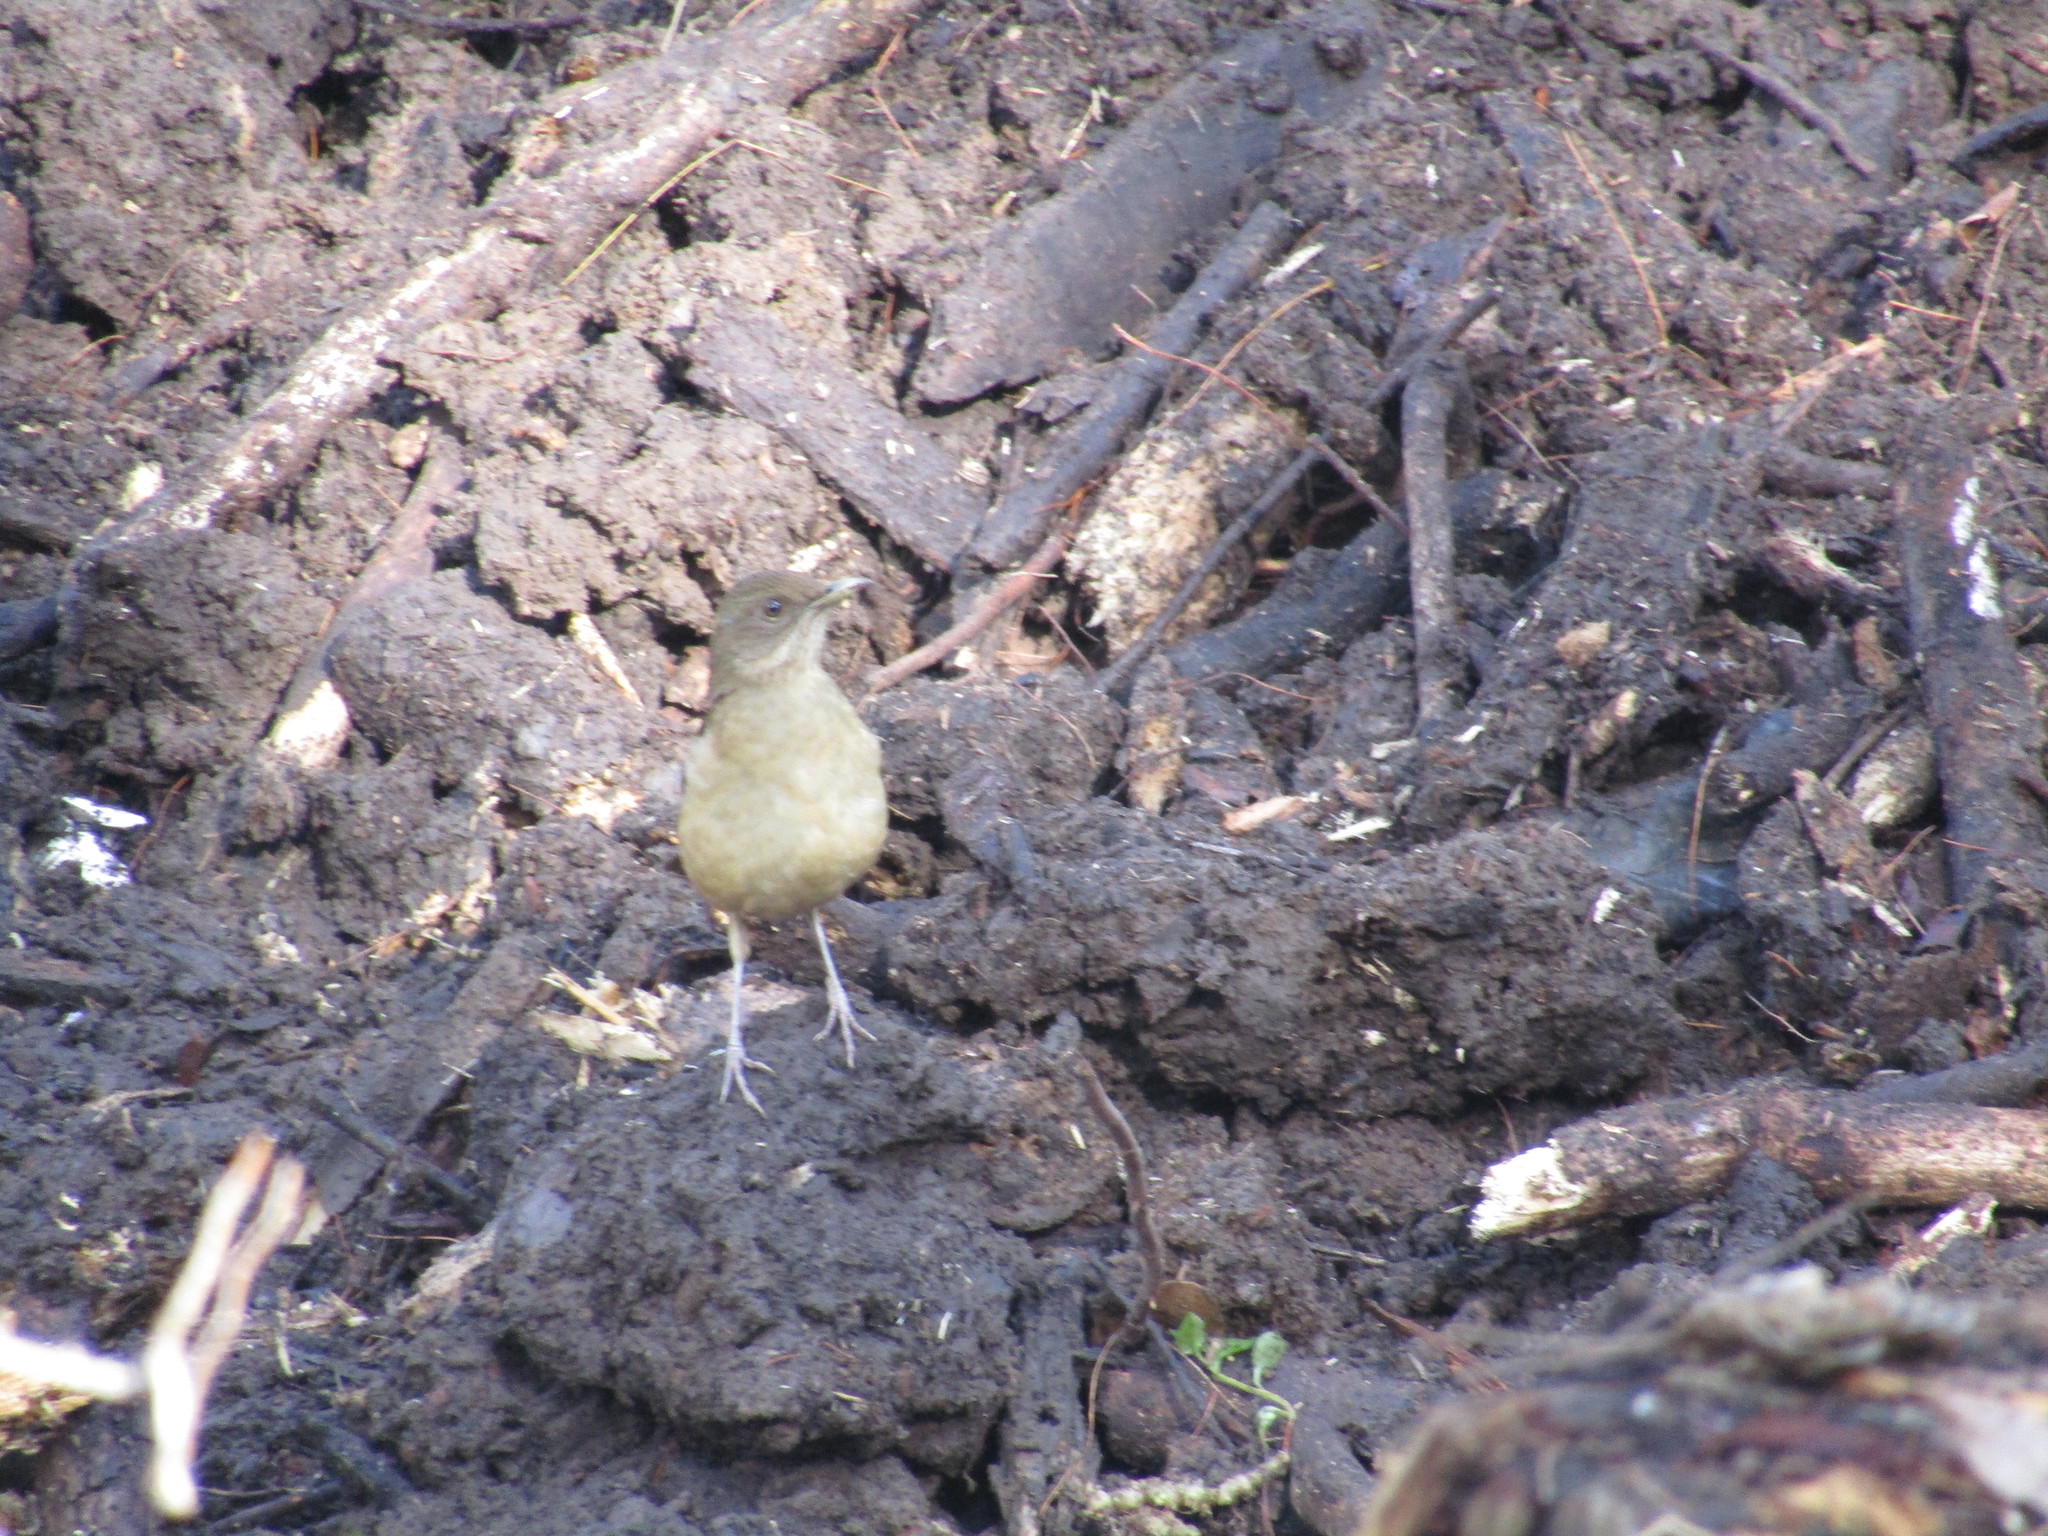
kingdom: Animalia
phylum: Chordata
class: Aves
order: Passeriformes
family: Turdidae
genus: Turdus
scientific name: Turdus grayi
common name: Clay-colored thrush
